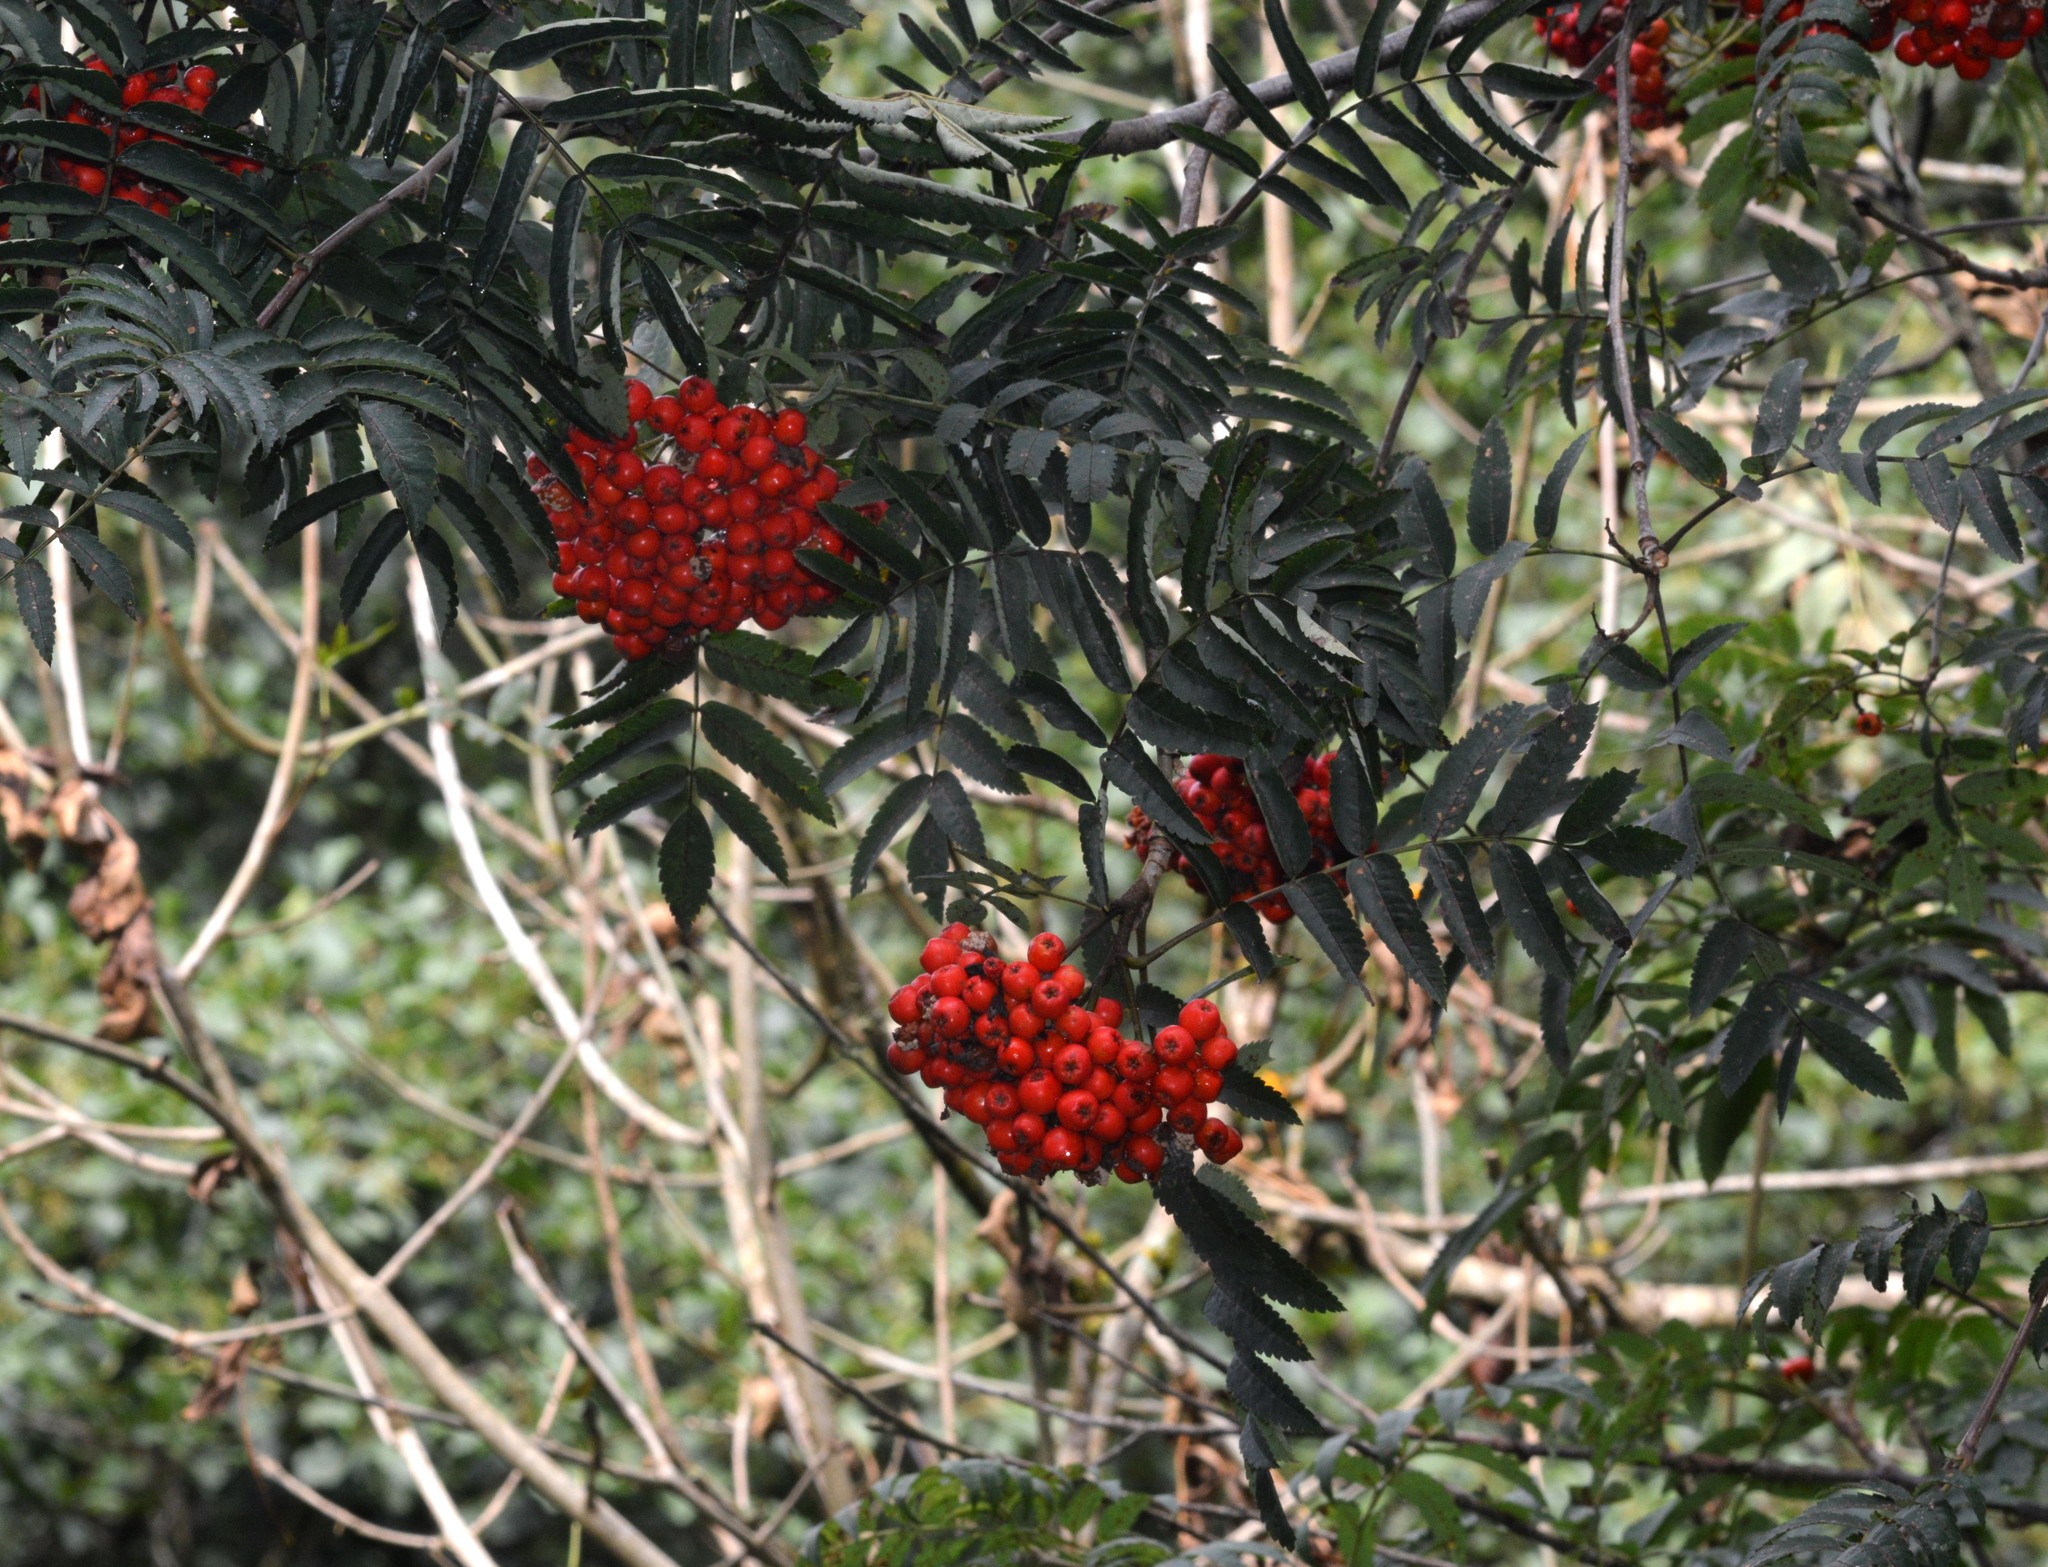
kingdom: Plantae
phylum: Tracheophyta
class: Magnoliopsida
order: Rosales
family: Rosaceae
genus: Sorbus
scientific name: Sorbus aucuparia
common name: Rowan
